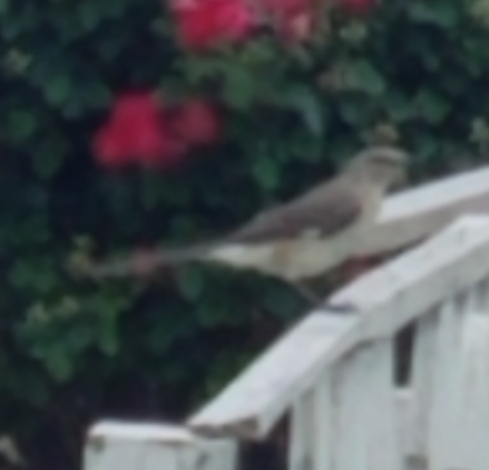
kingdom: Animalia
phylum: Chordata
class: Aves
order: Passeriformes
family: Mimidae
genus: Mimus
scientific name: Mimus polyglottos
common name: Northern mockingbird
